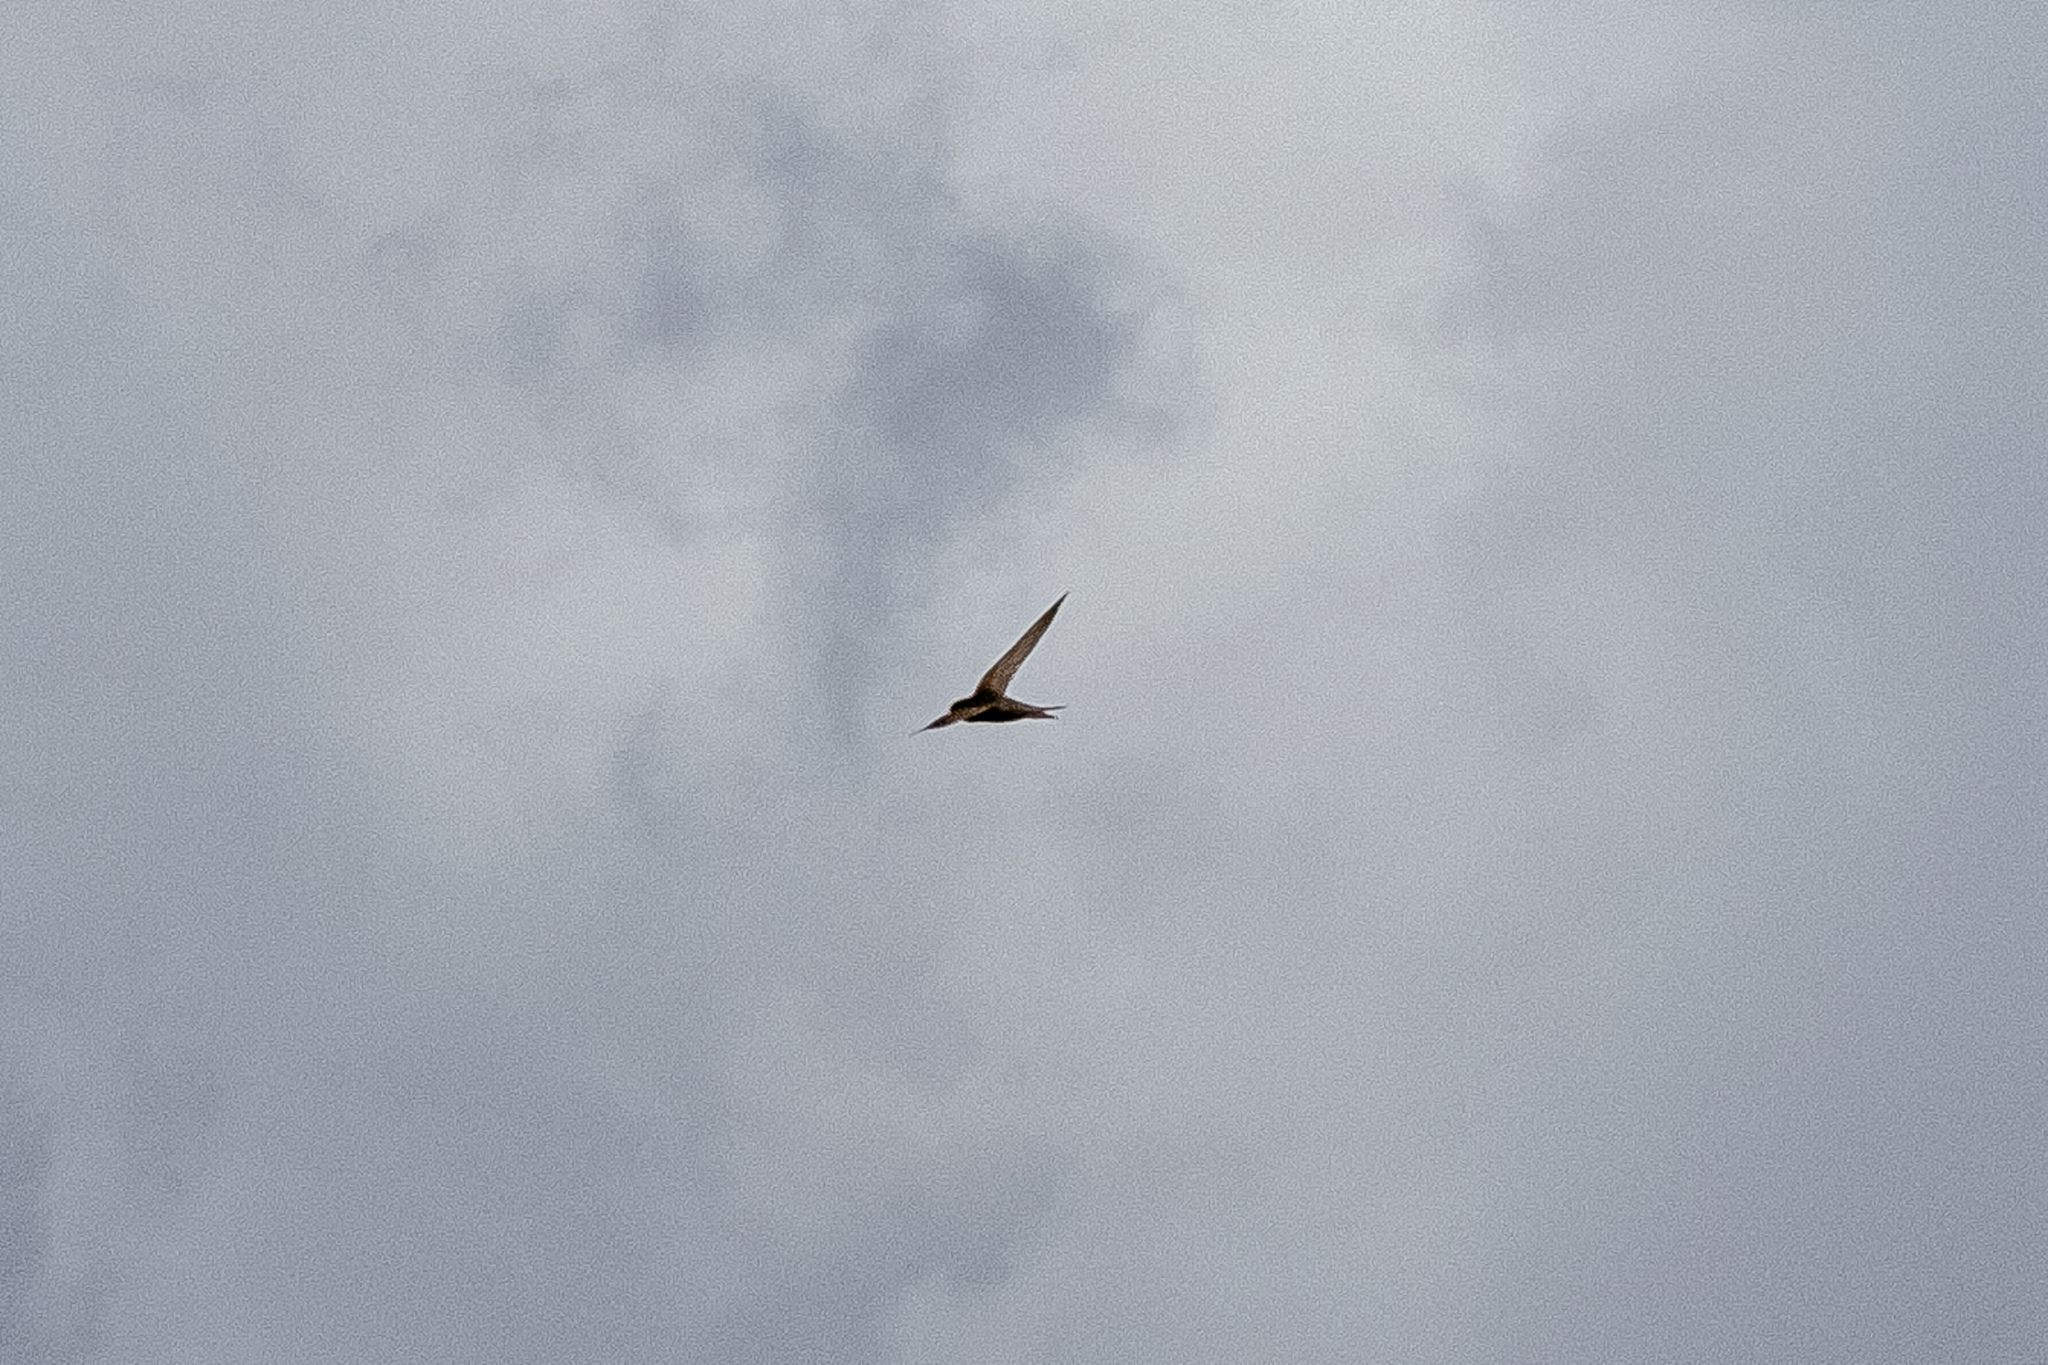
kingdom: Animalia
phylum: Chordata
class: Aves
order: Apodiformes
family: Apodidae
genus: Apus
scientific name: Apus apus
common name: Common swift
